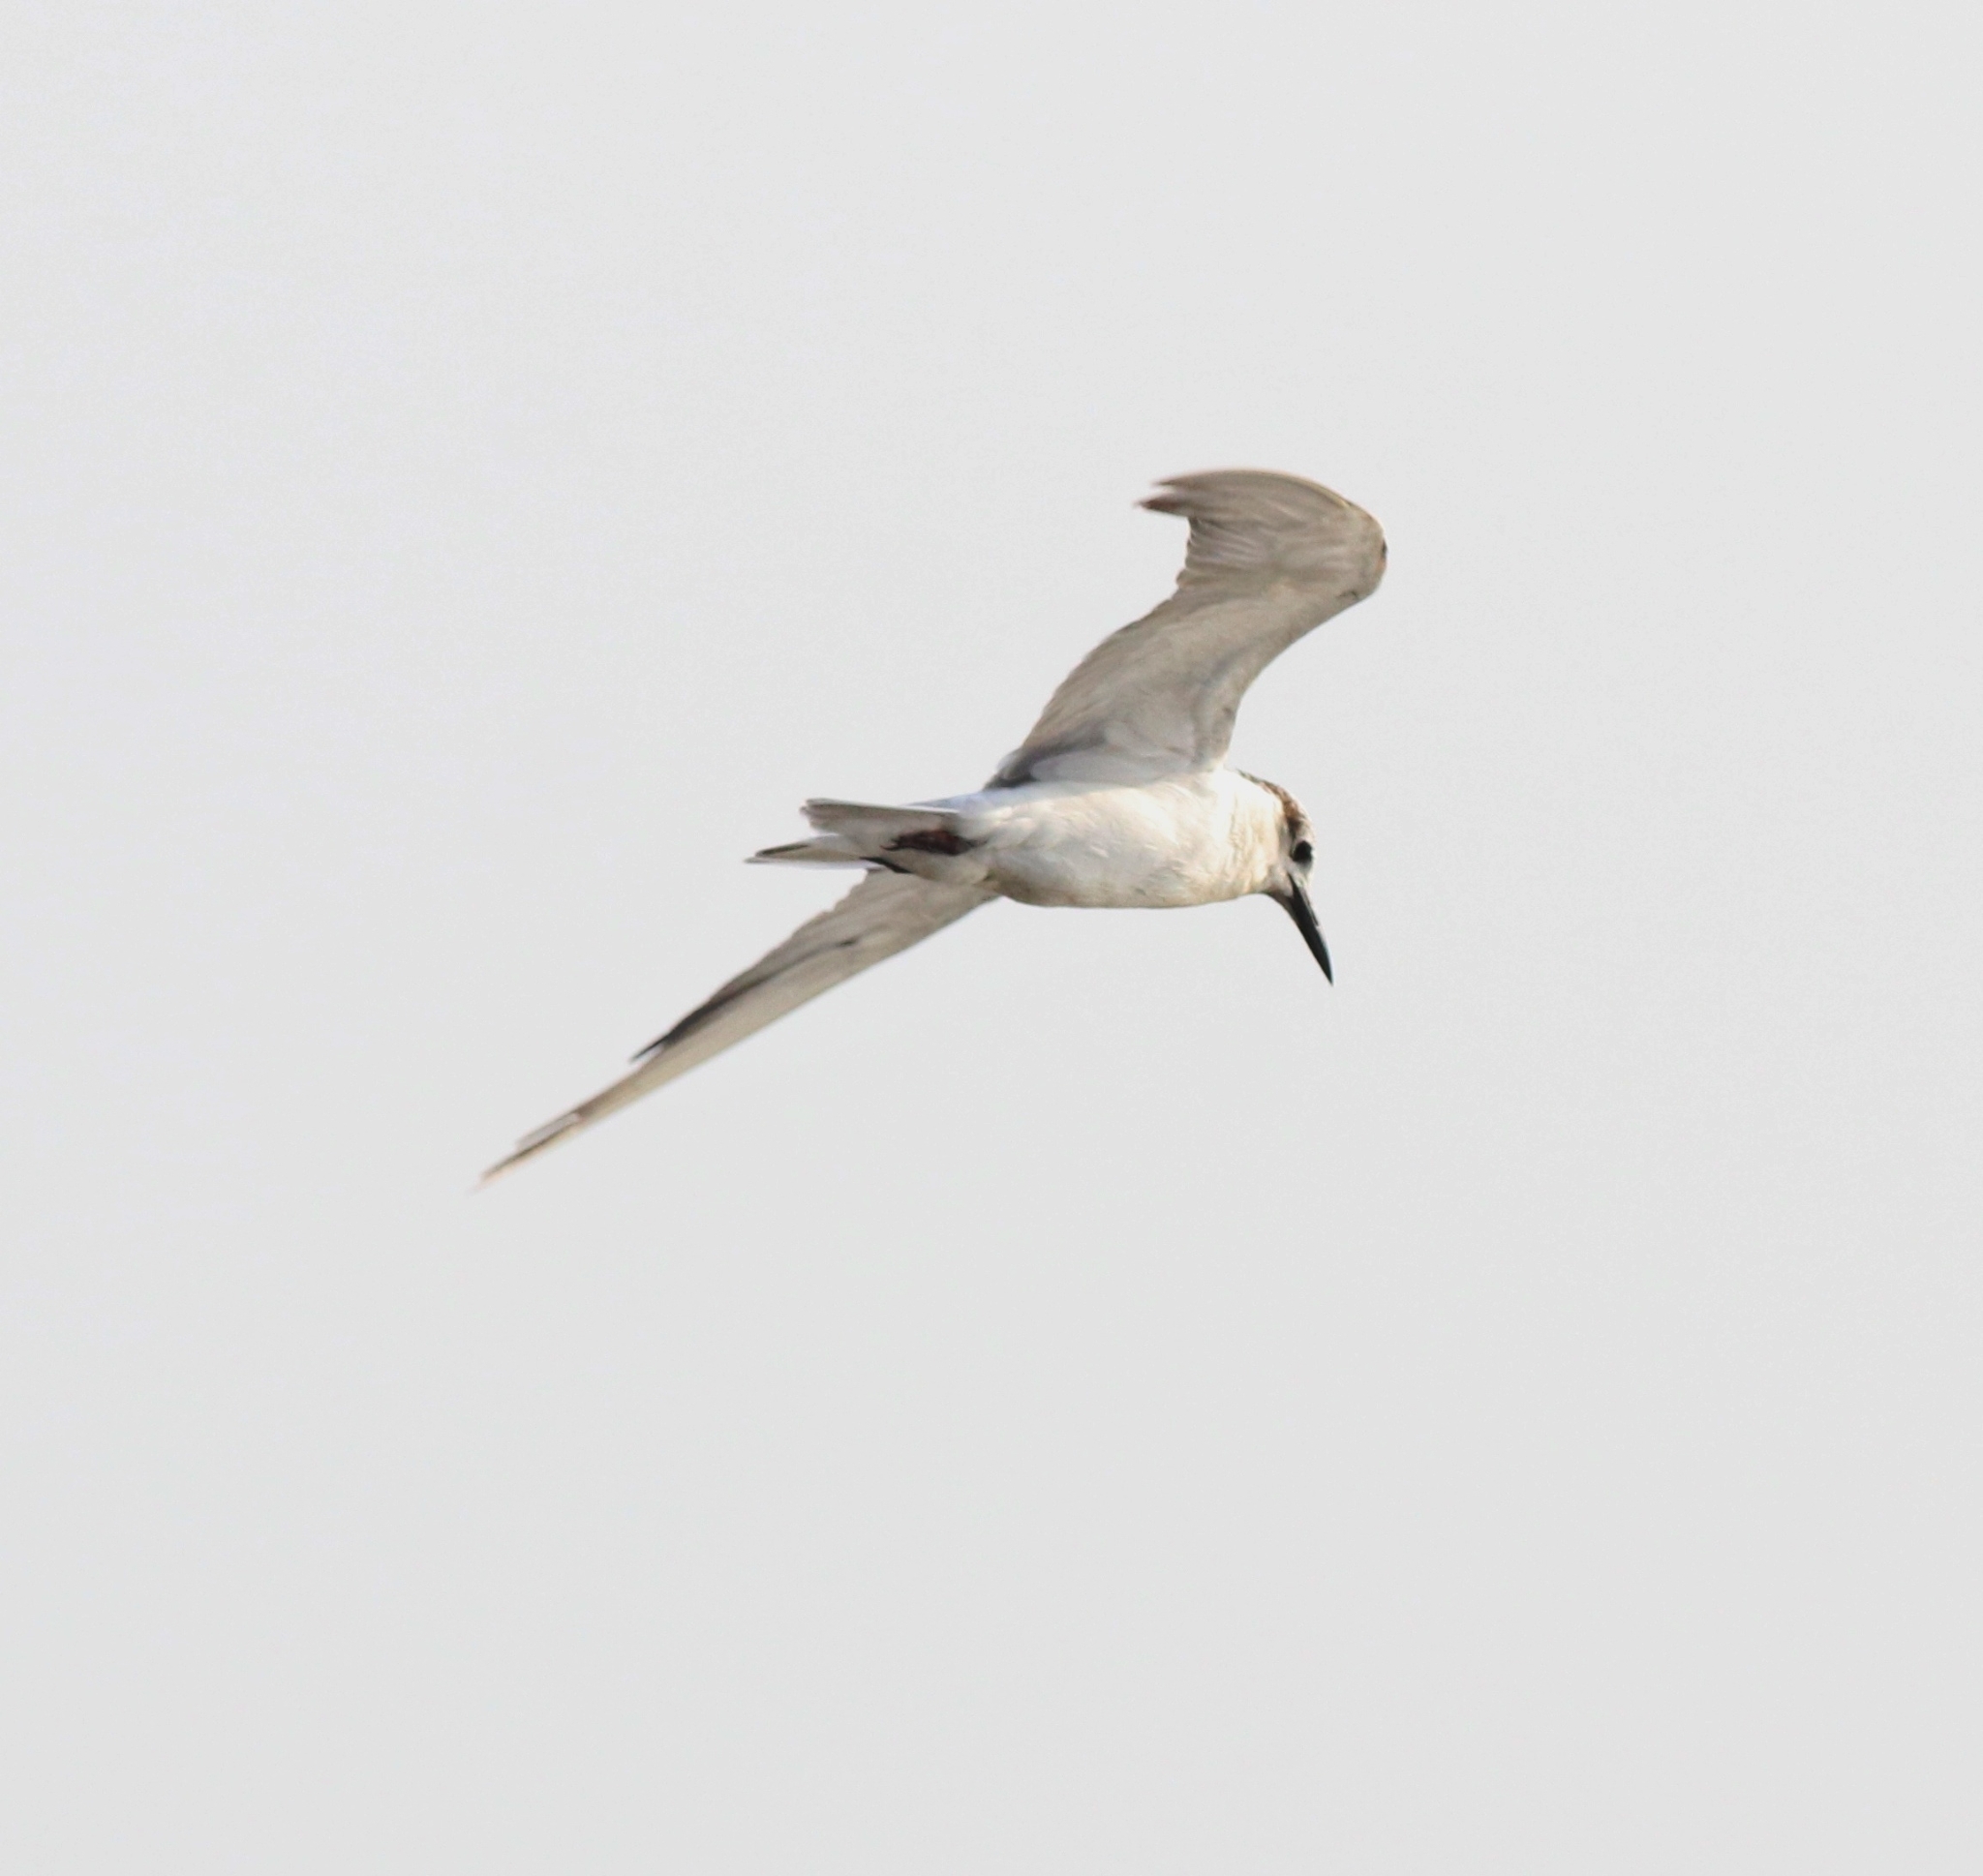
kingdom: Animalia
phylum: Chordata
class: Aves
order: Charadriiformes
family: Laridae
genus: Chlidonias
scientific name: Chlidonias hybrida
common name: Whiskered tern
